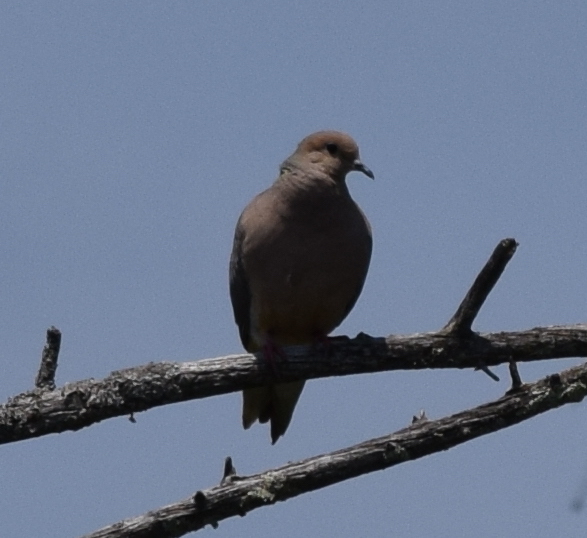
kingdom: Animalia
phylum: Chordata
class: Aves
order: Columbiformes
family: Columbidae
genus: Zenaida
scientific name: Zenaida macroura
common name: Mourning dove
